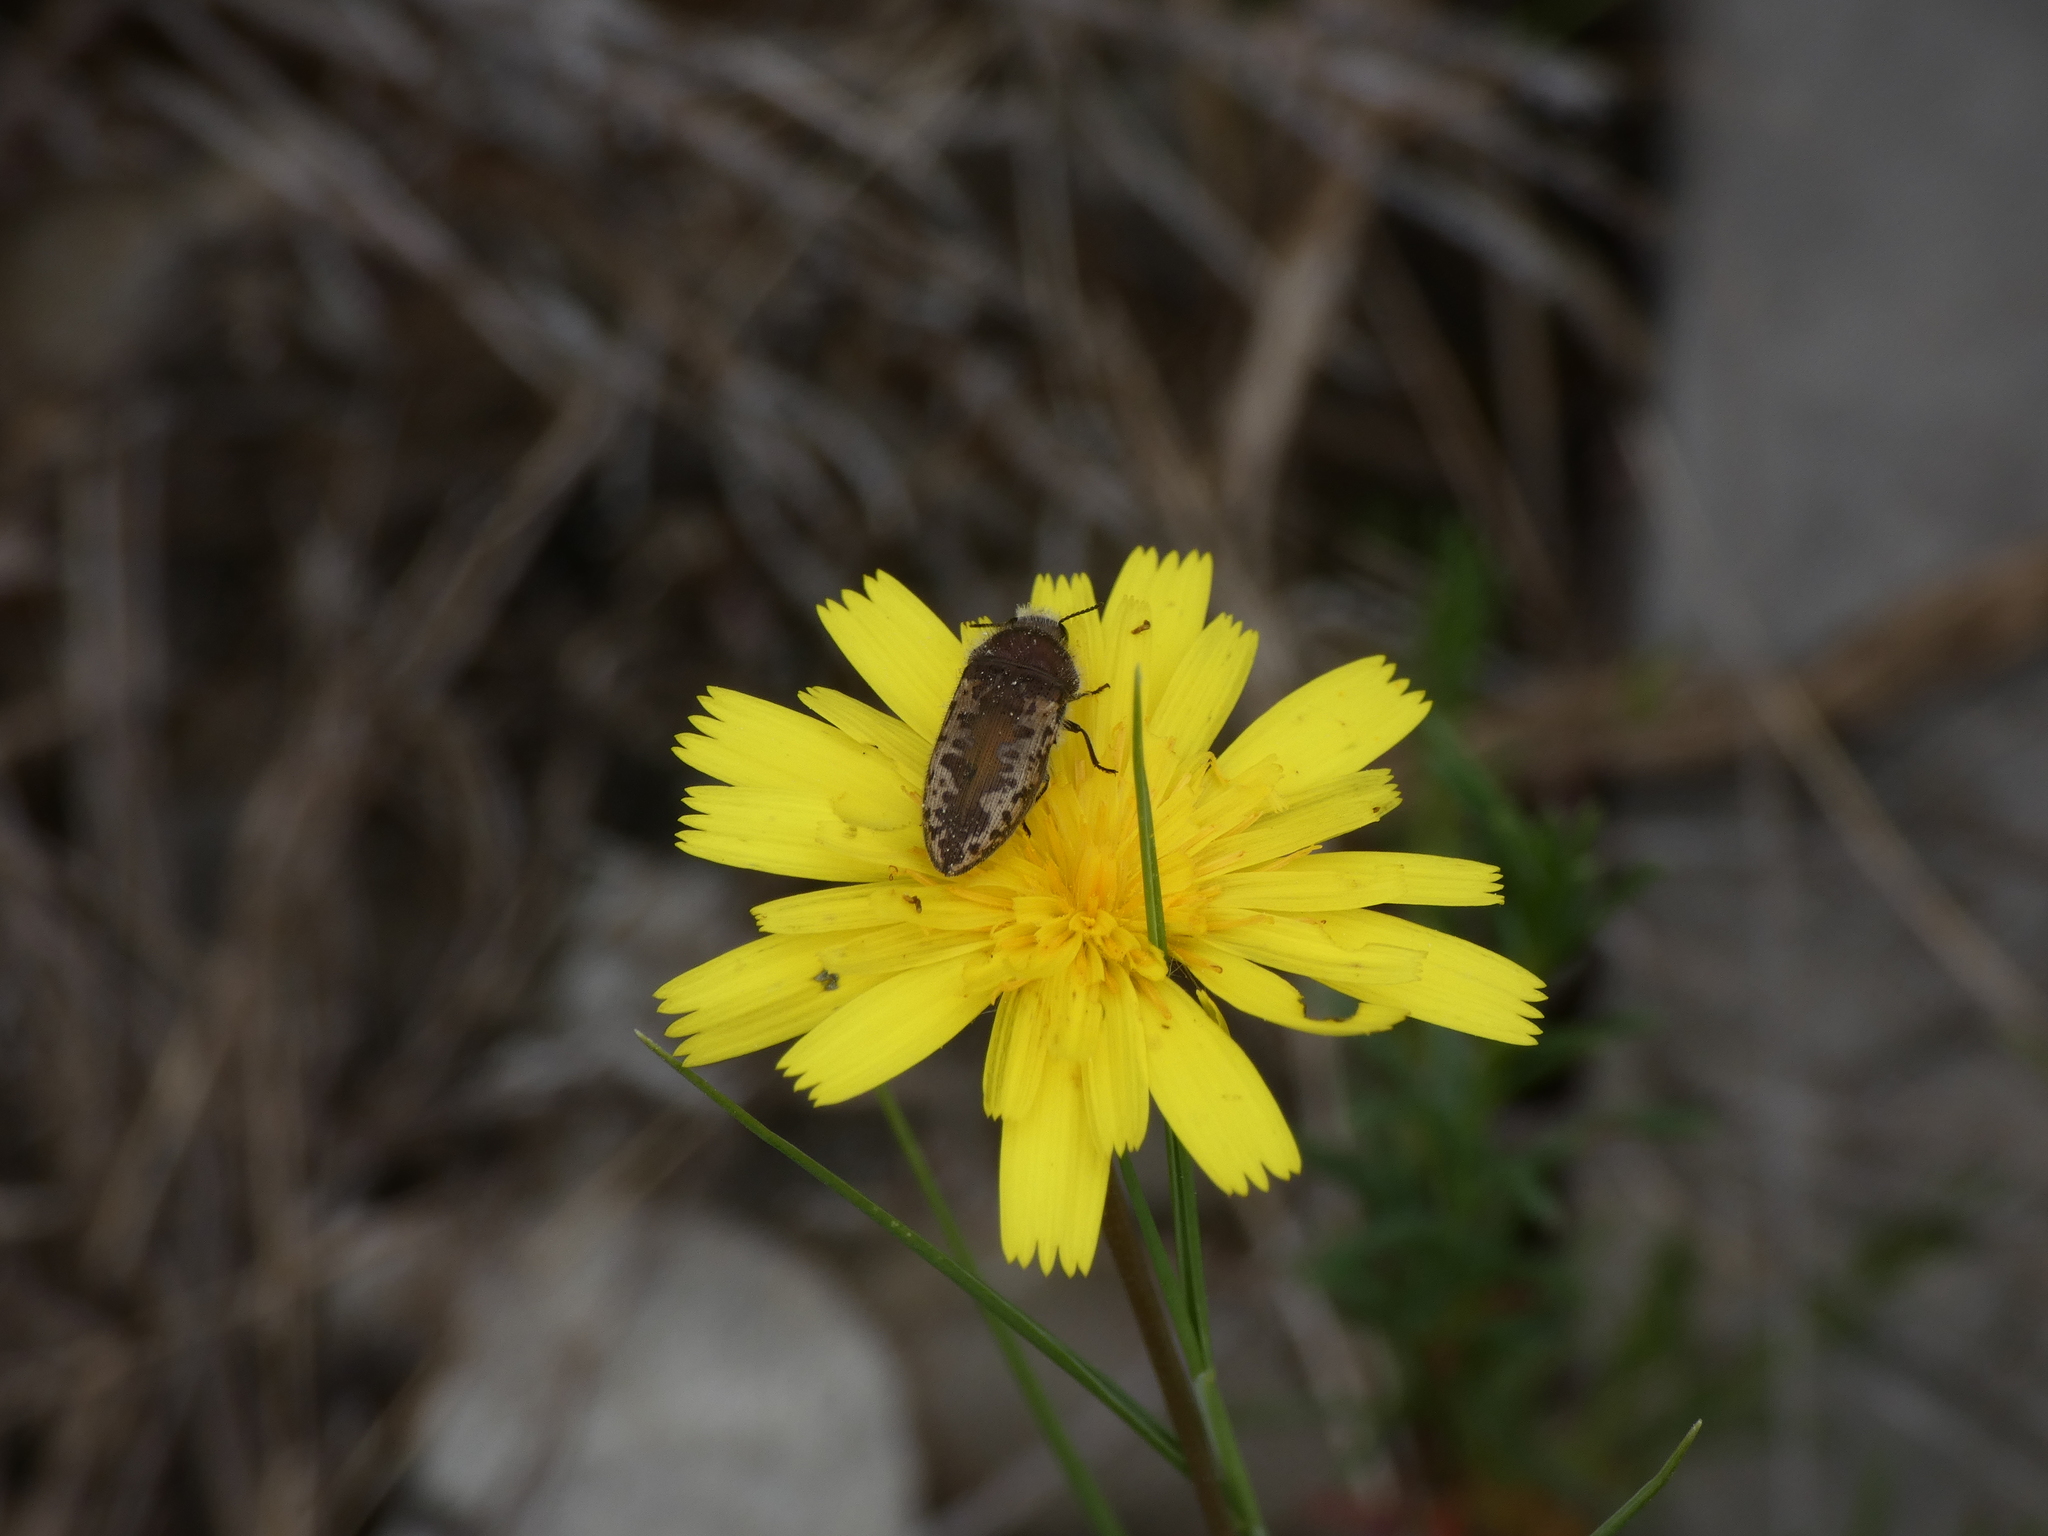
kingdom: Animalia
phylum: Arthropoda
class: Insecta
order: Coleoptera
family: Buprestidae
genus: Acmaeodera
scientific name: Acmaeodera pilosellae
